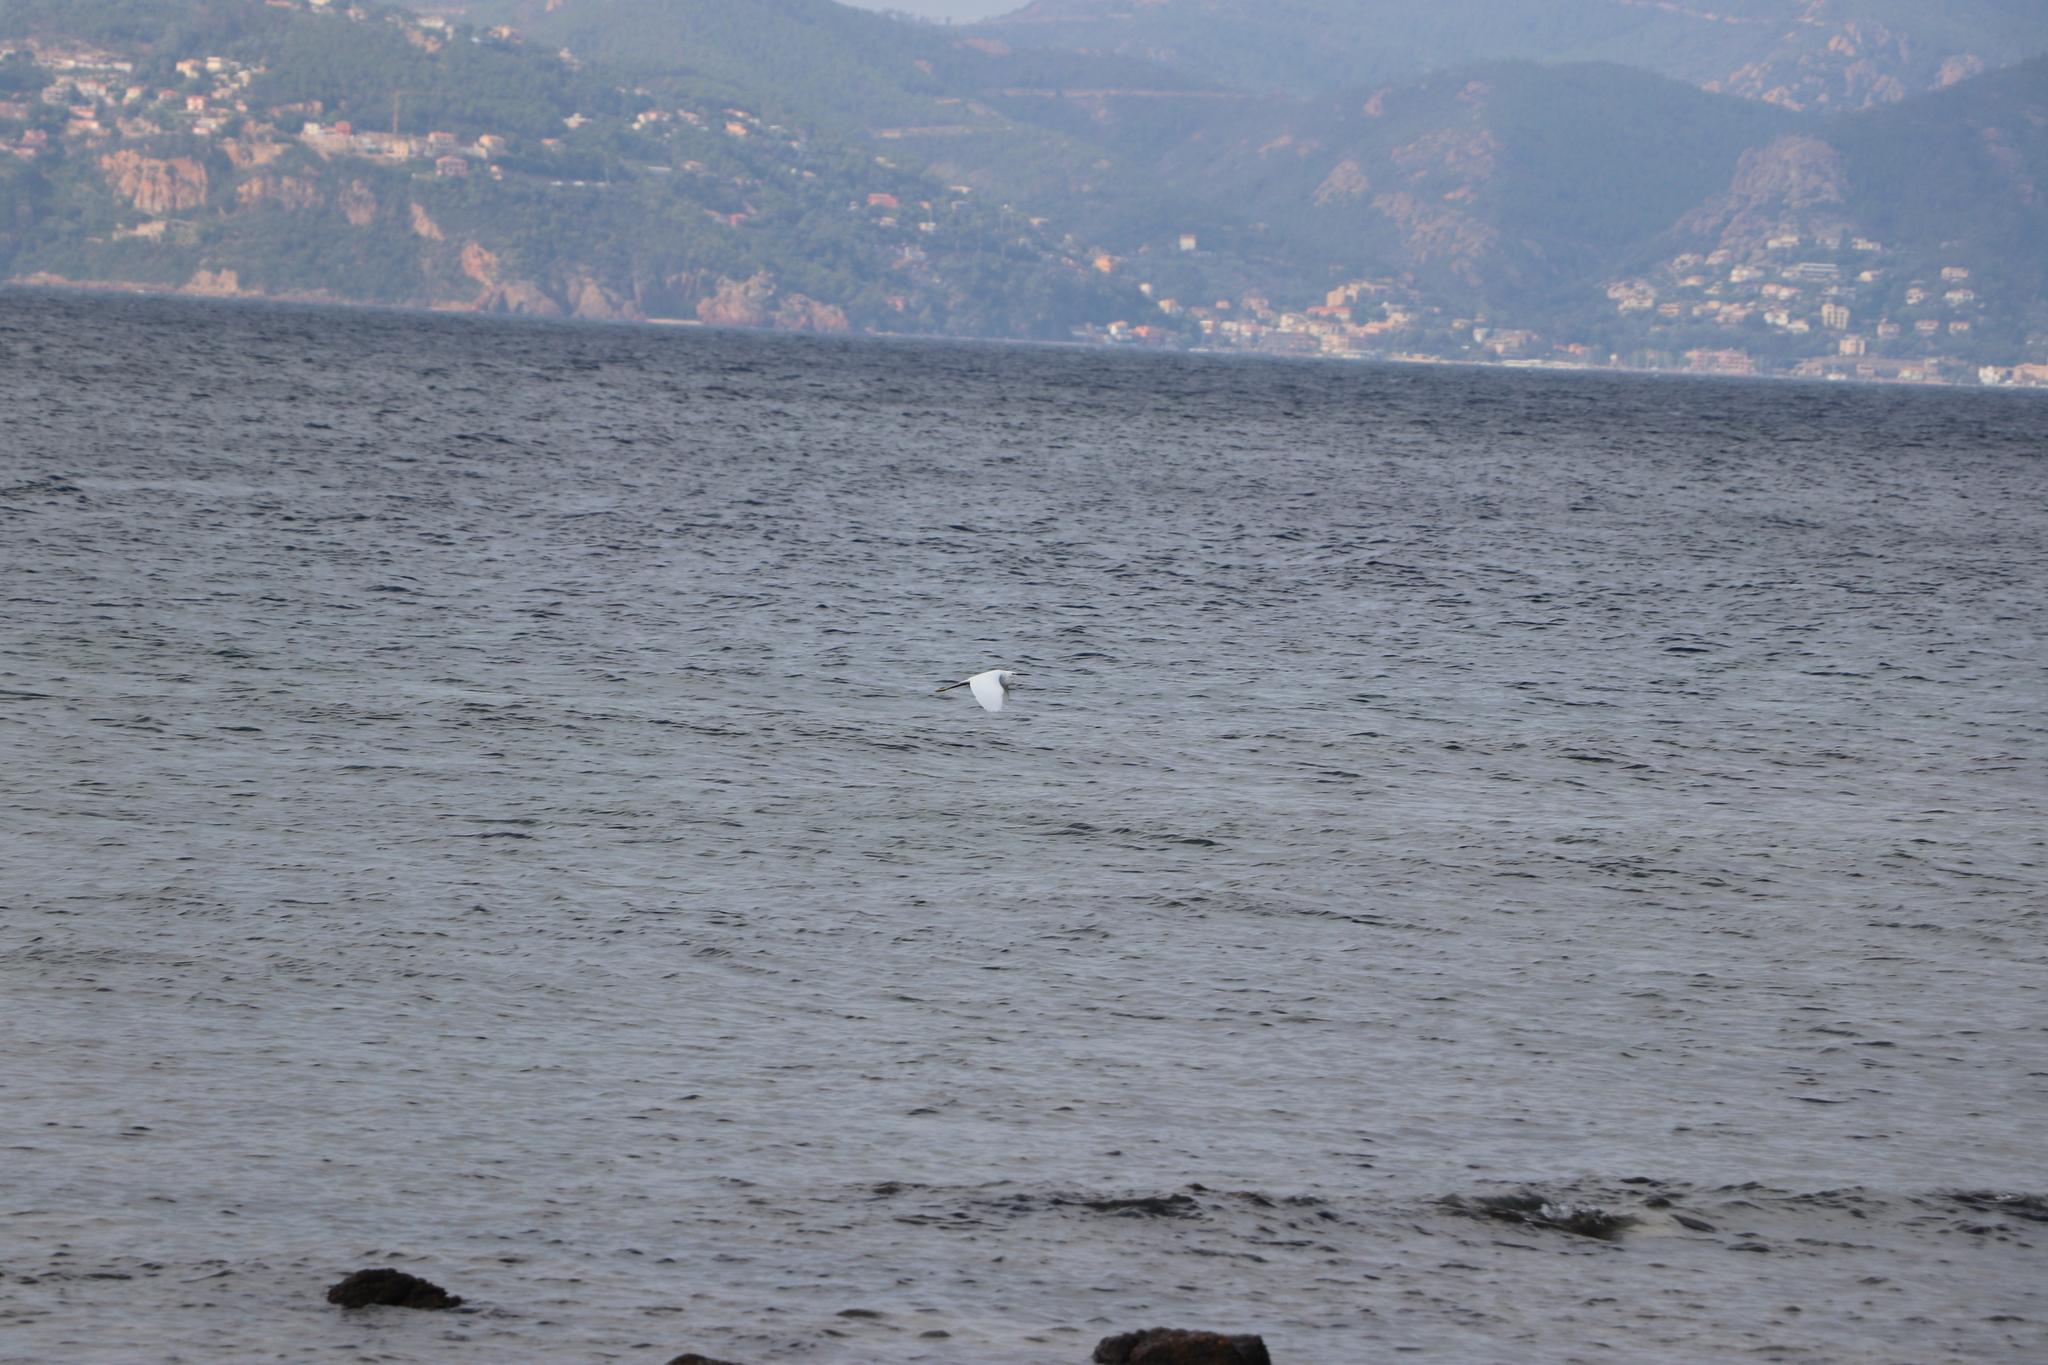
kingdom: Animalia
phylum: Chordata
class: Aves
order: Pelecaniformes
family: Ardeidae
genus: Egretta
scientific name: Egretta garzetta
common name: Little egret
